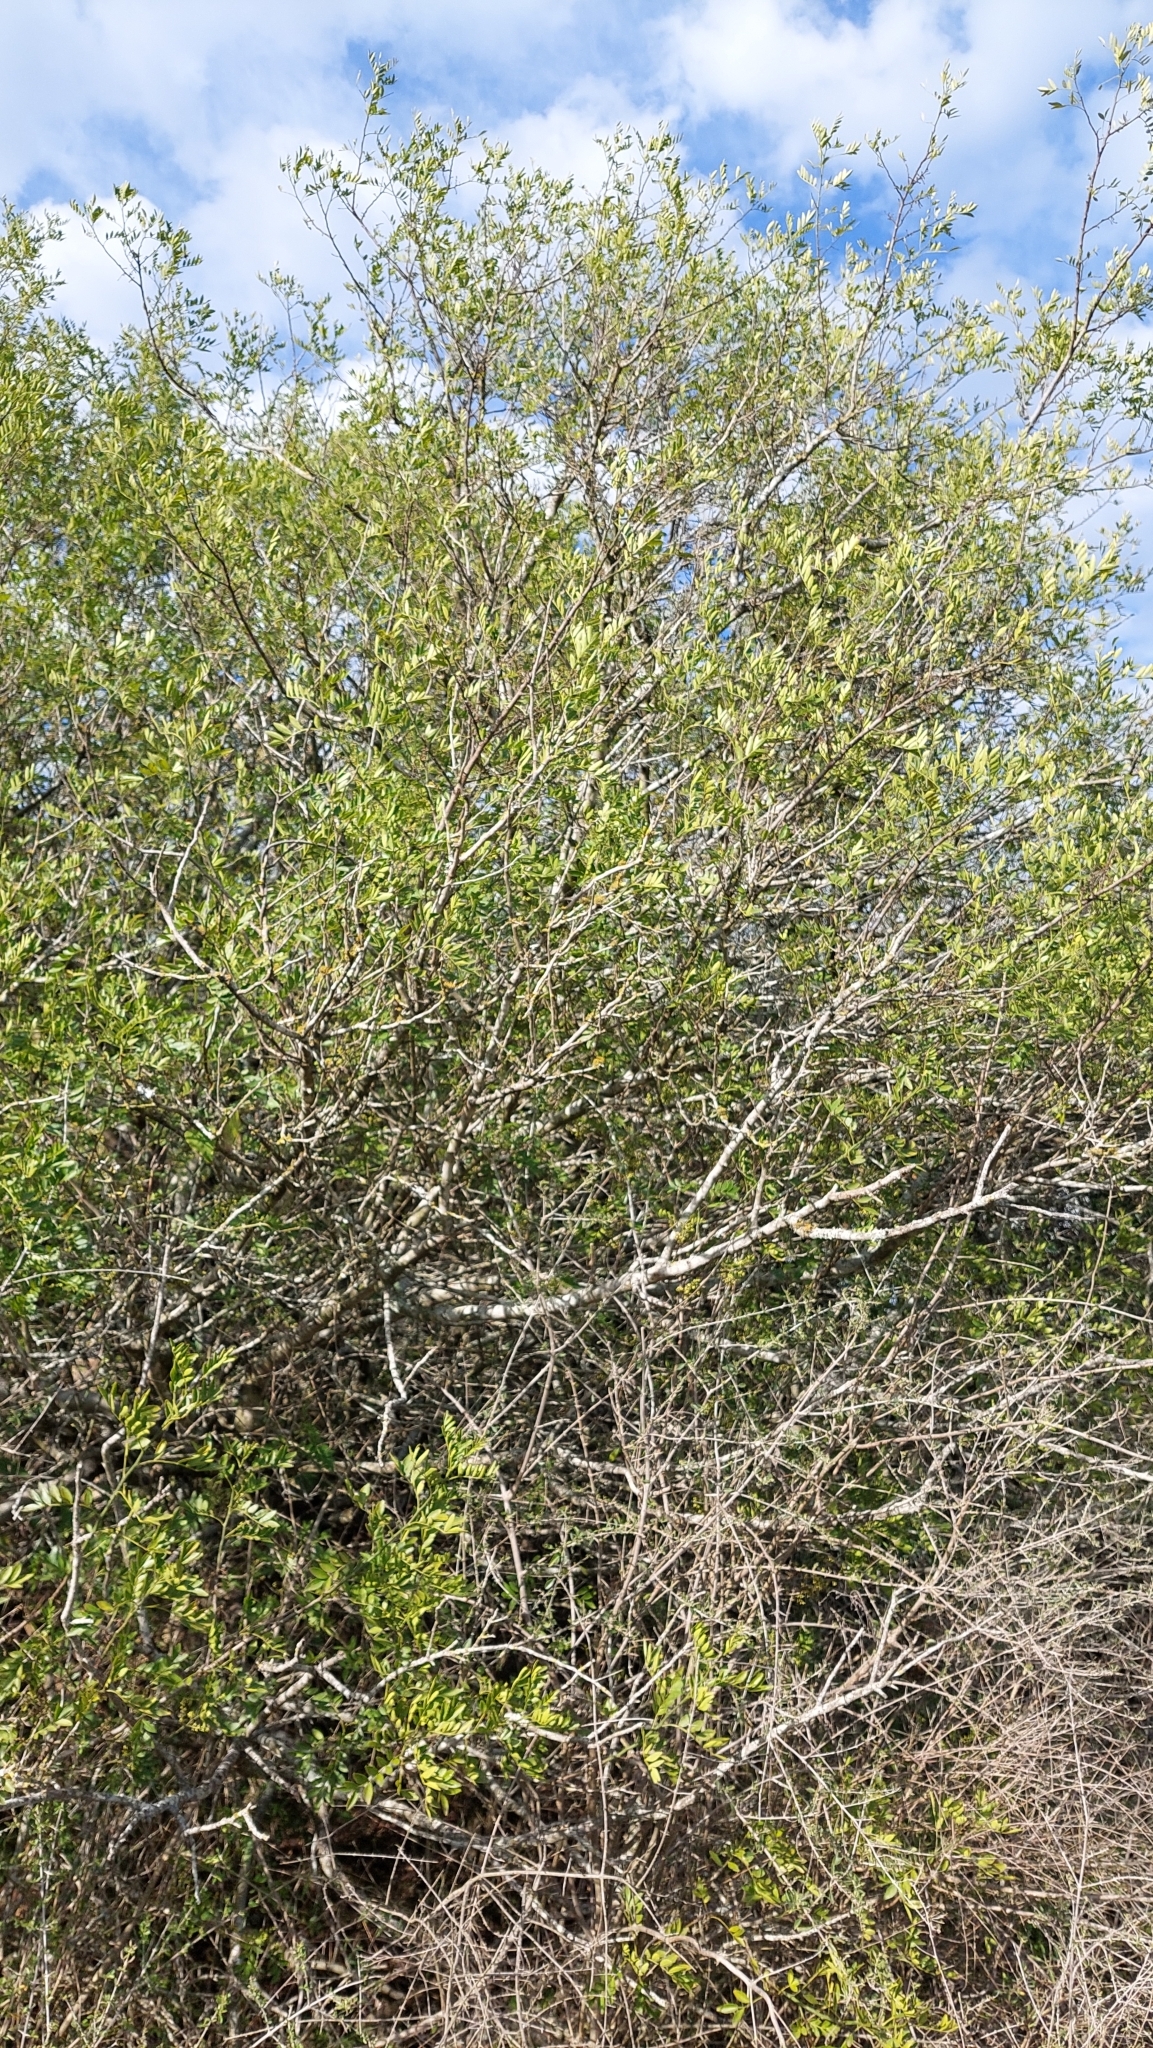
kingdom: Plantae
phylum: Tracheophyta
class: Magnoliopsida
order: Lamiales
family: Verbenaceae
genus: Aloysia
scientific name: Aloysia gratissima
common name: Common bee-brush
